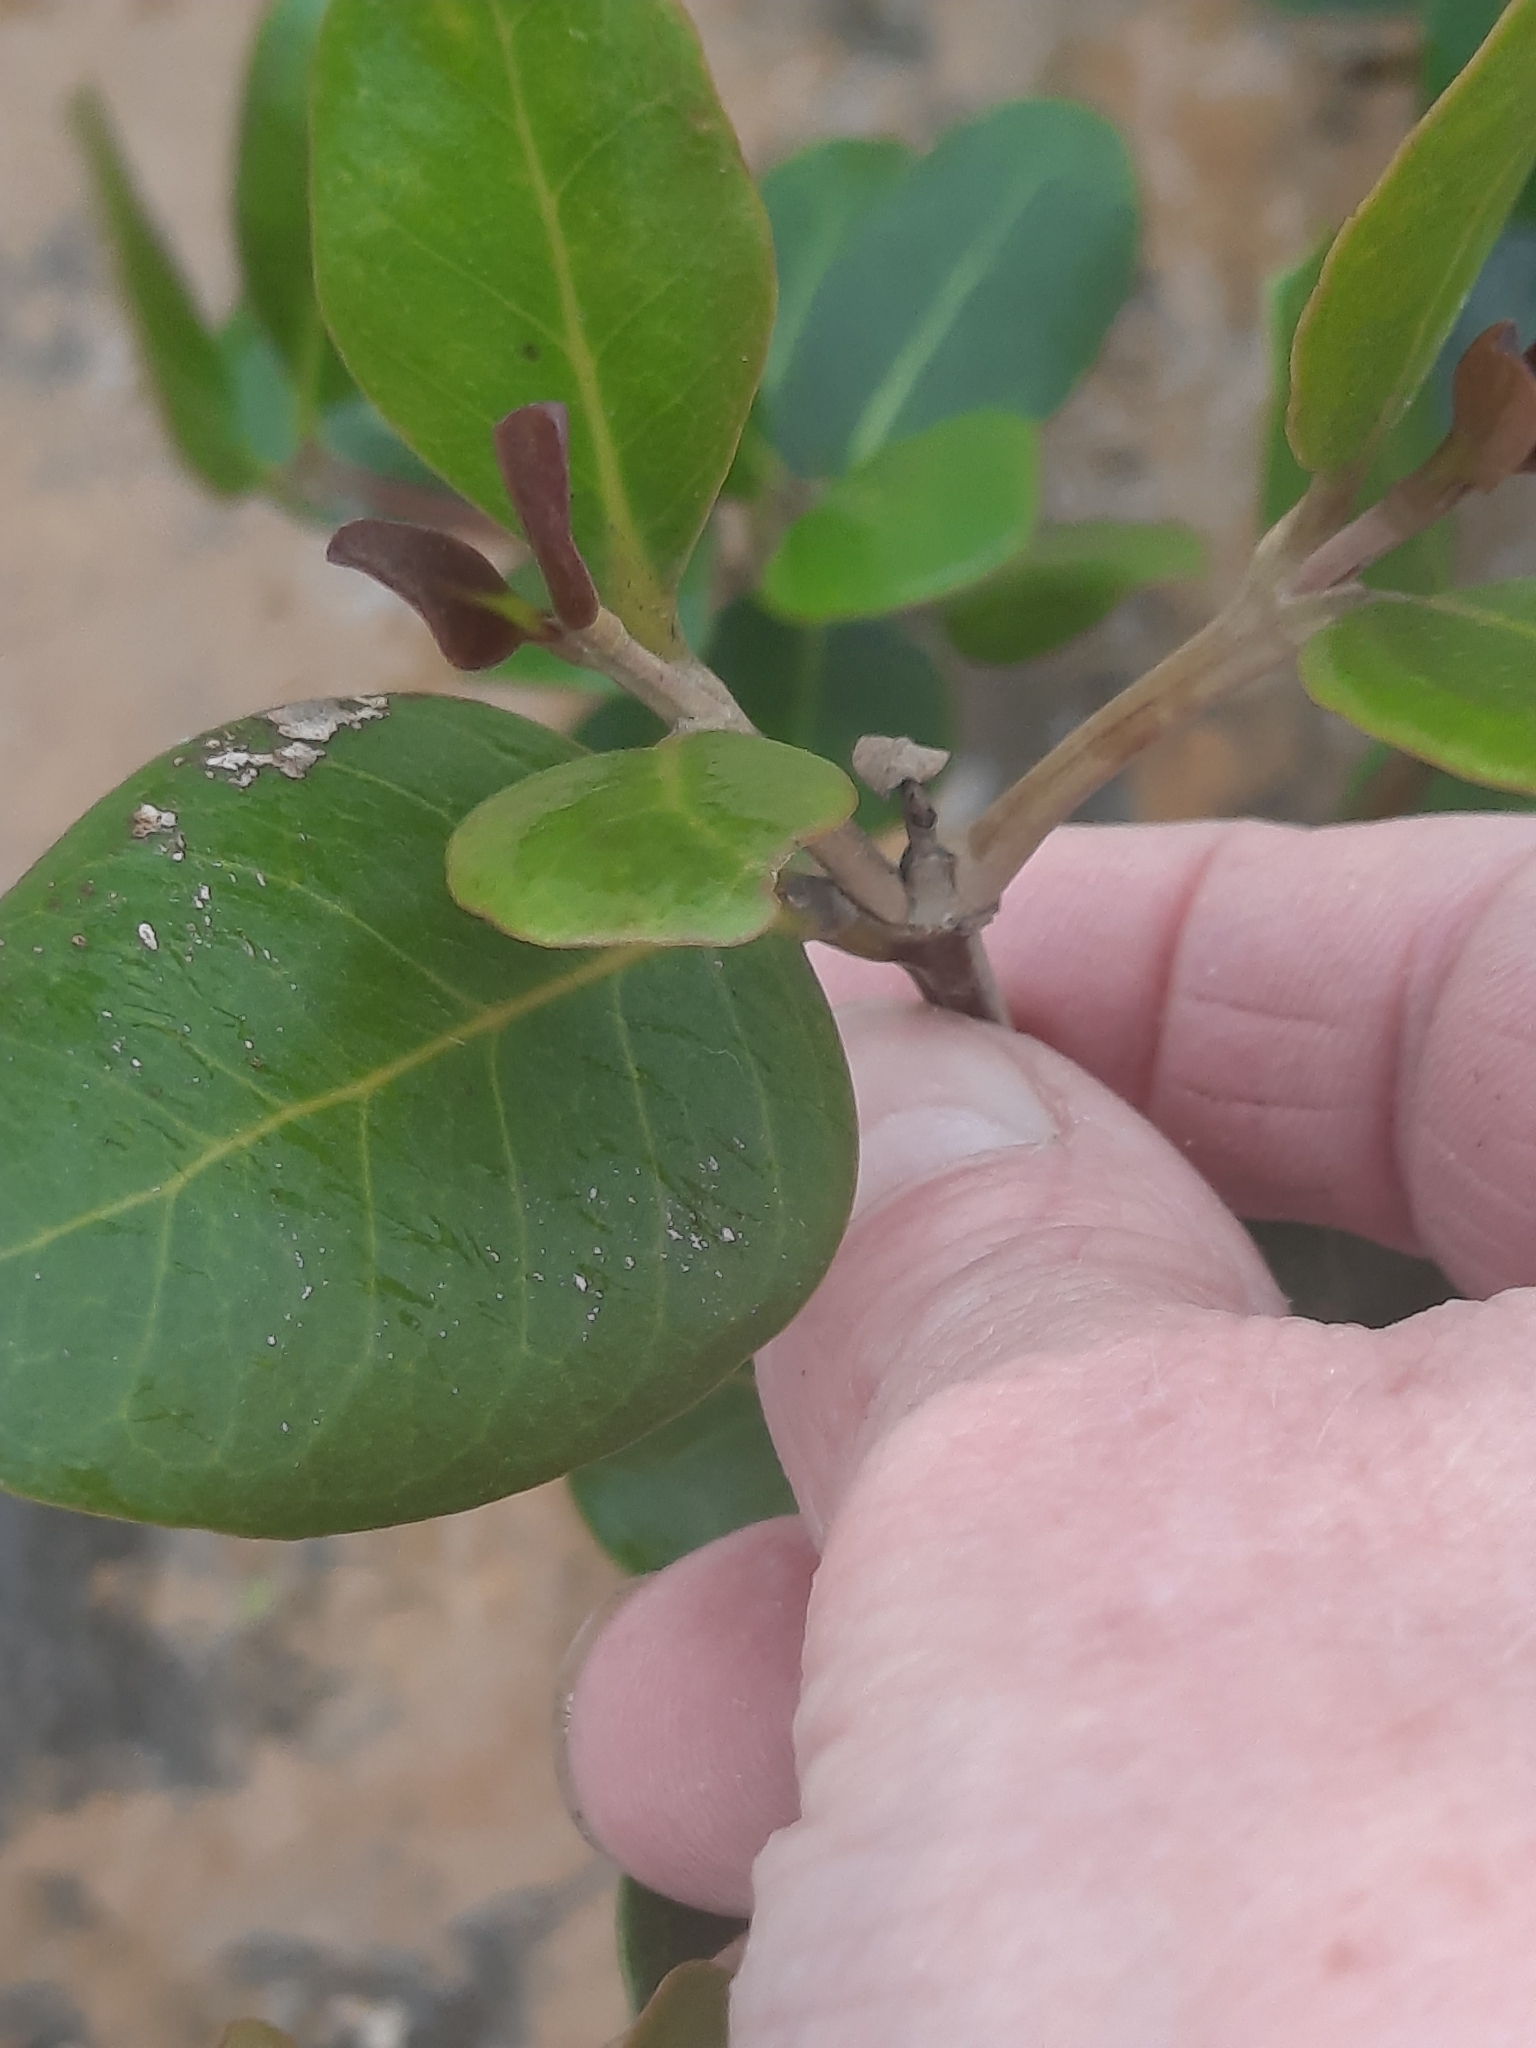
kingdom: Plantae
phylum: Tracheophyta
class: Magnoliopsida
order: Lamiales
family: Acanthaceae
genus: Avicennia
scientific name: Avicennia marina
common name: Gray mangrove
